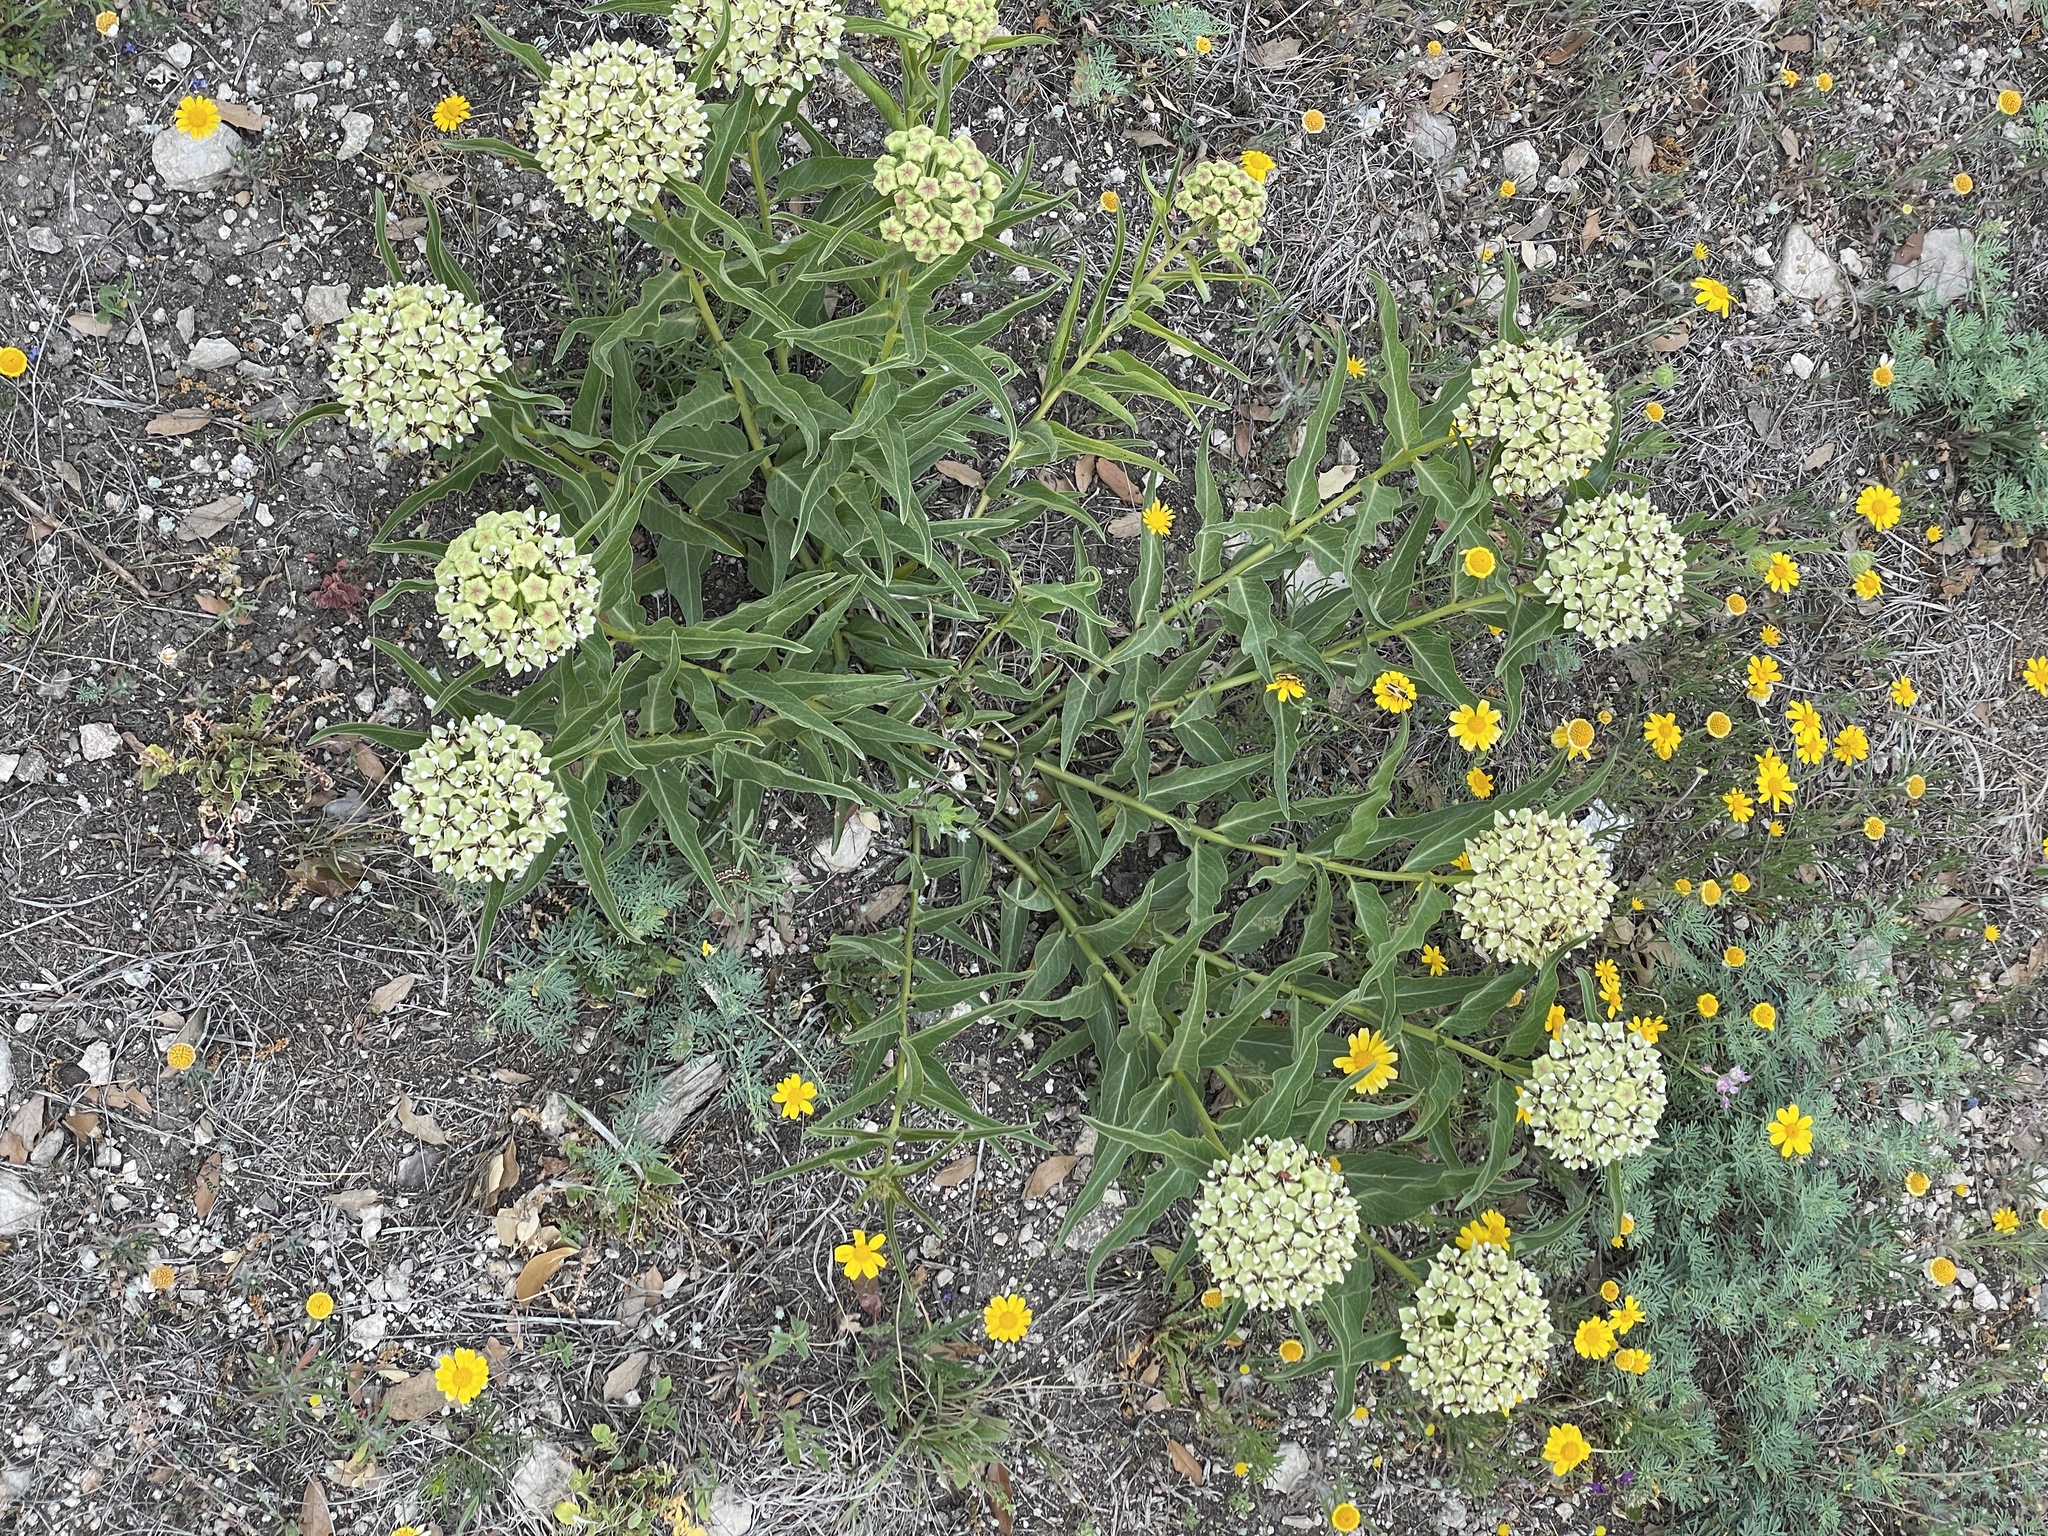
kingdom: Plantae
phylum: Tracheophyta
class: Magnoliopsida
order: Gentianales
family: Apocynaceae
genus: Asclepias
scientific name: Asclepias asperula
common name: Antelope horns
